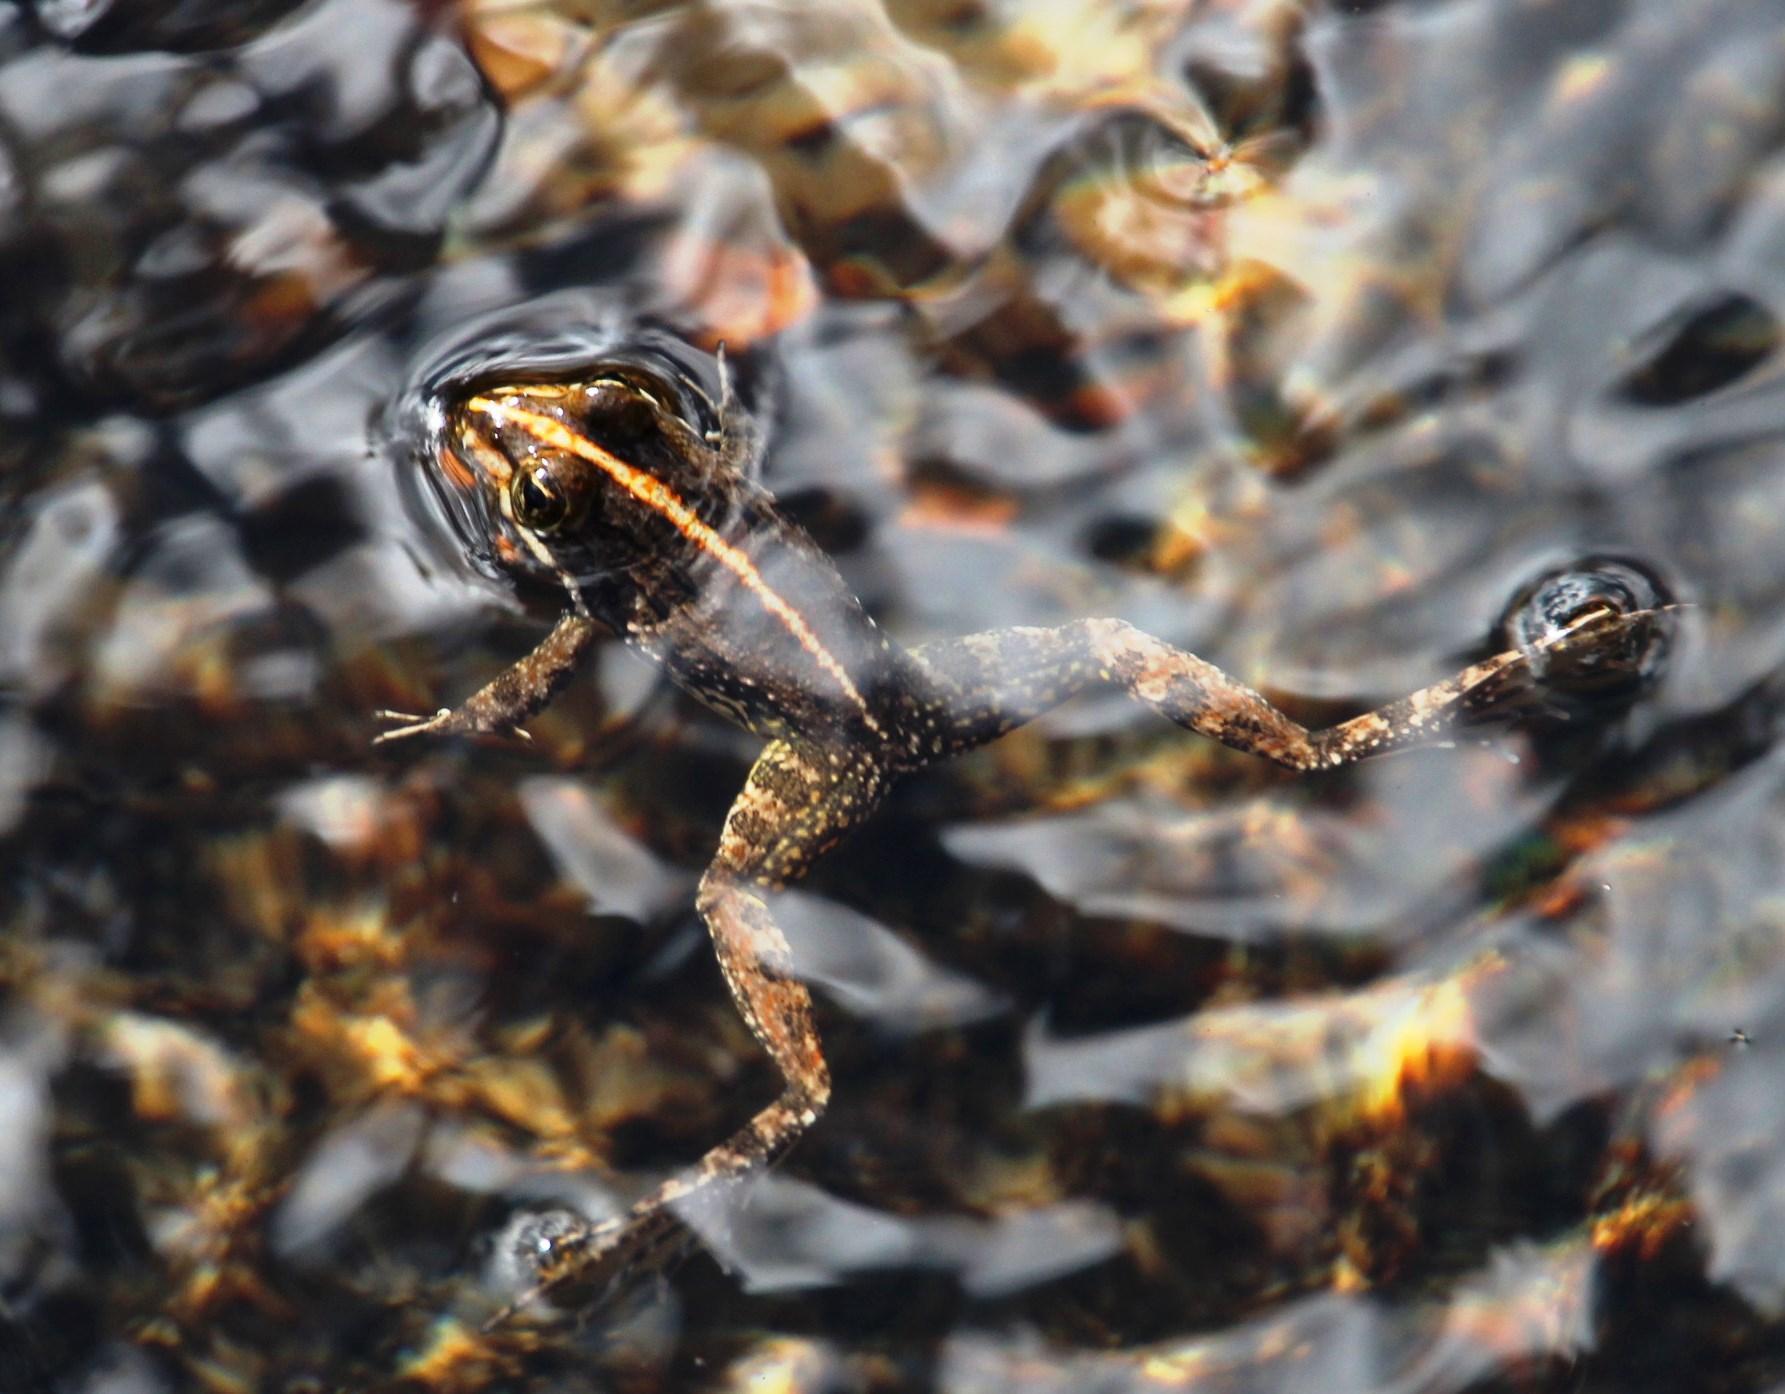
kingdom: Animalia
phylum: Chordata
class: Amphibia
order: Anura
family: Pyxicephalidae
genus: Amietia
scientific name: Amietia fuscigula
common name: Cape rana
